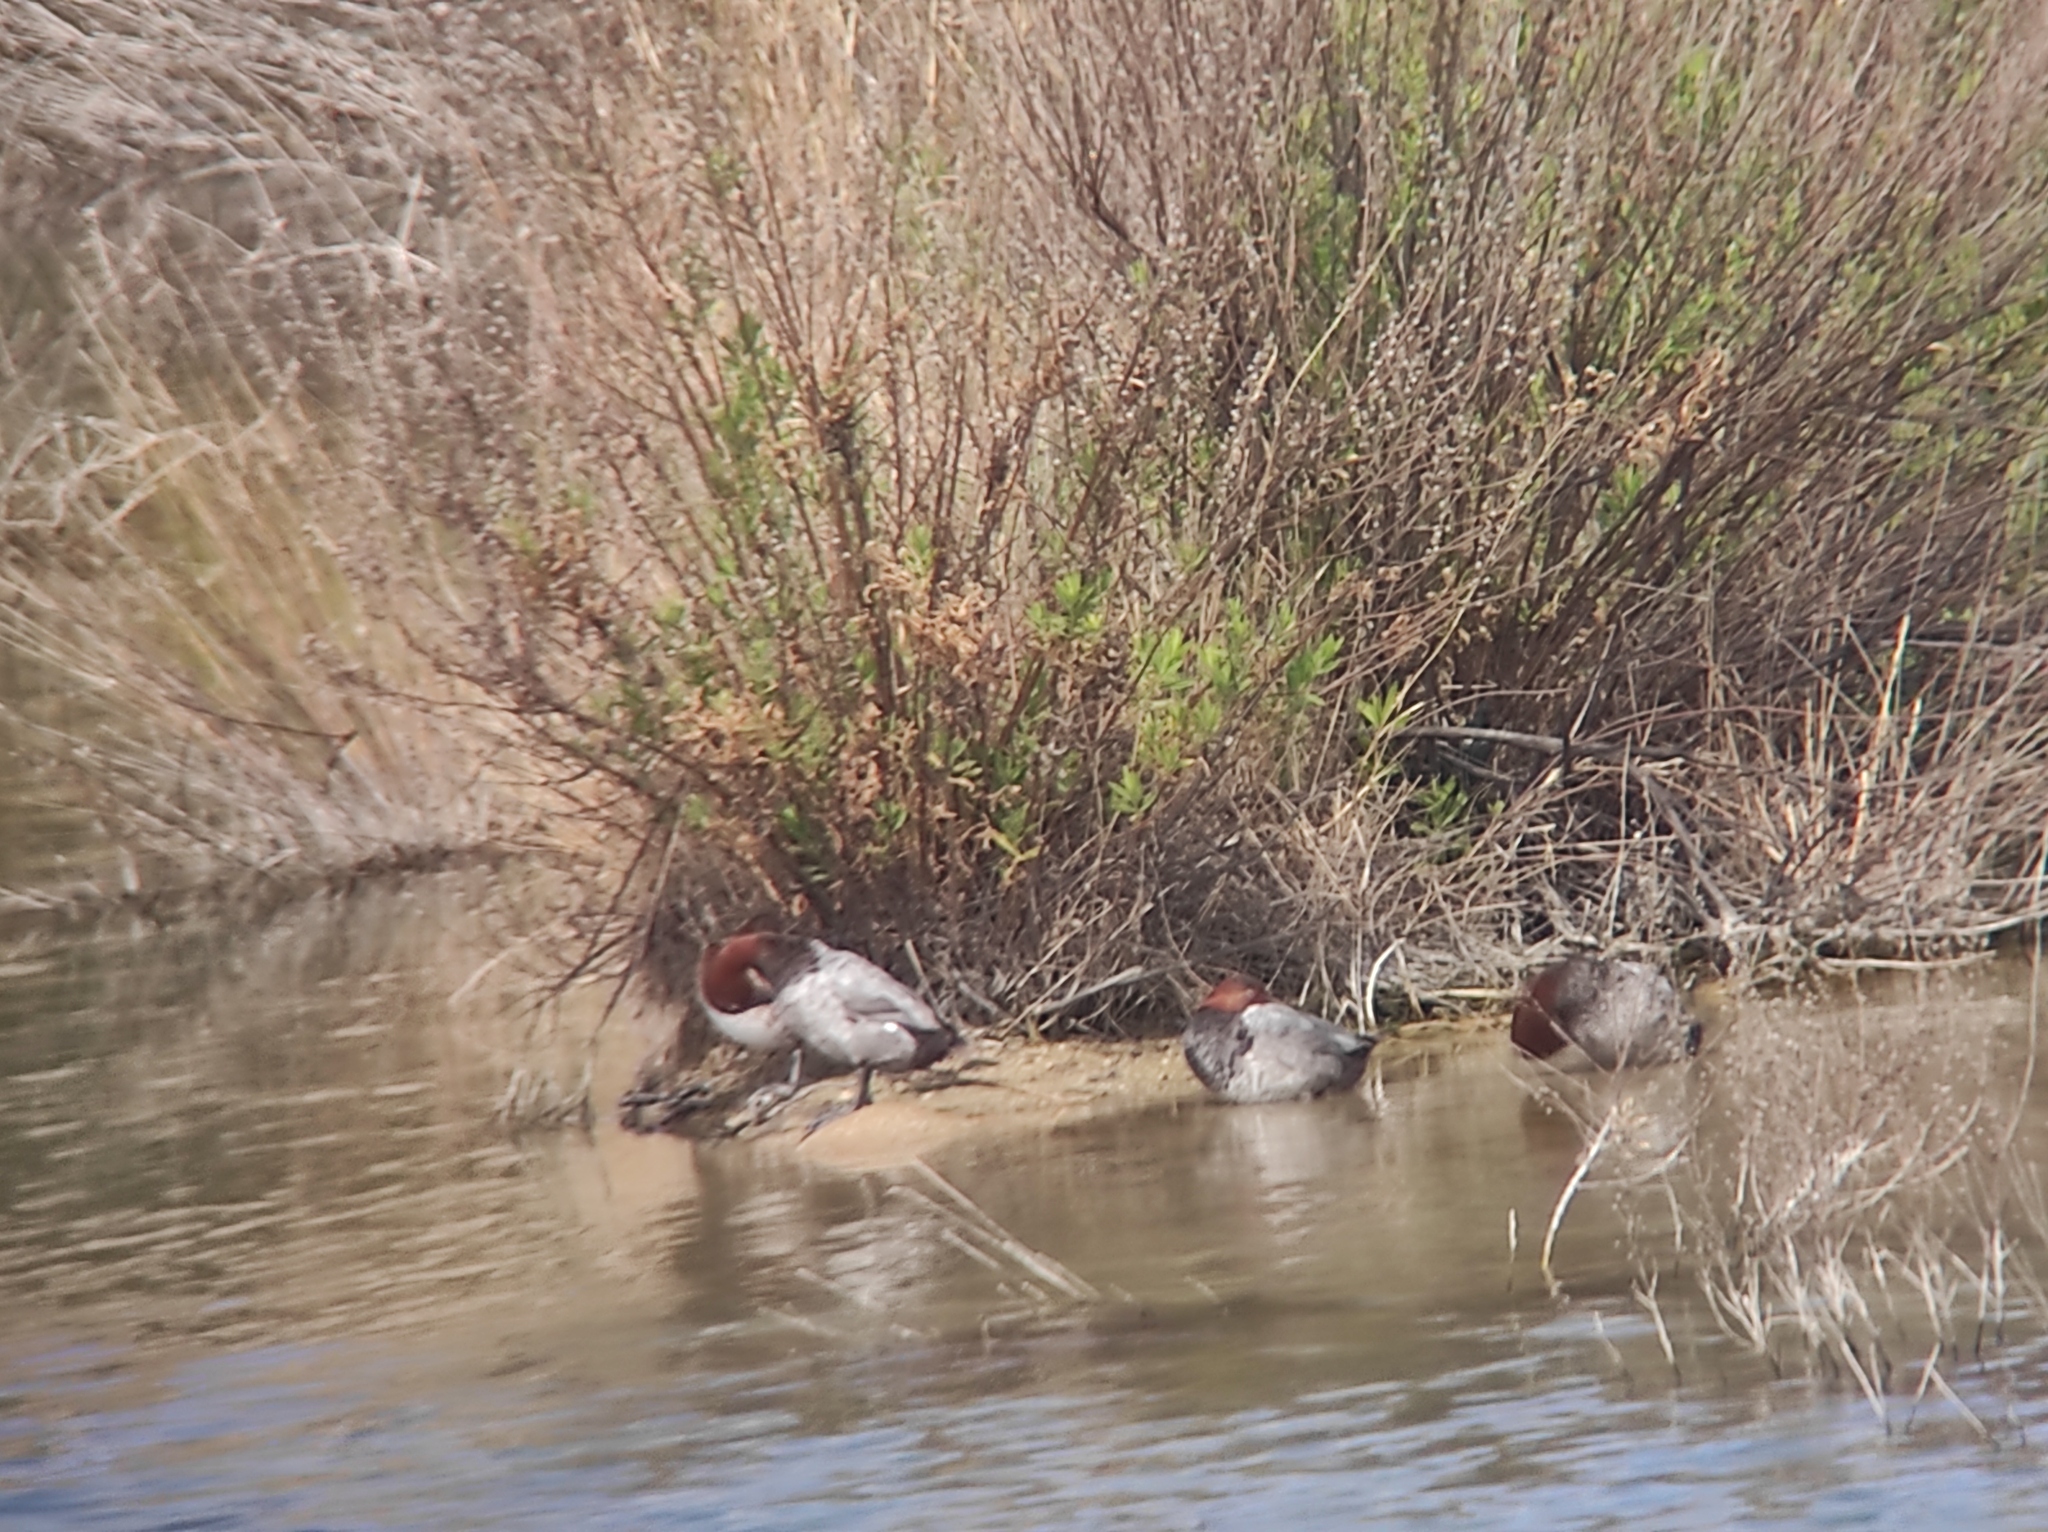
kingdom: Animalia
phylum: Chordata
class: Aves
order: Anseriformes
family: Anatidae
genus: Aythya
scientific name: Aythya ferina
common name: Common pochard
